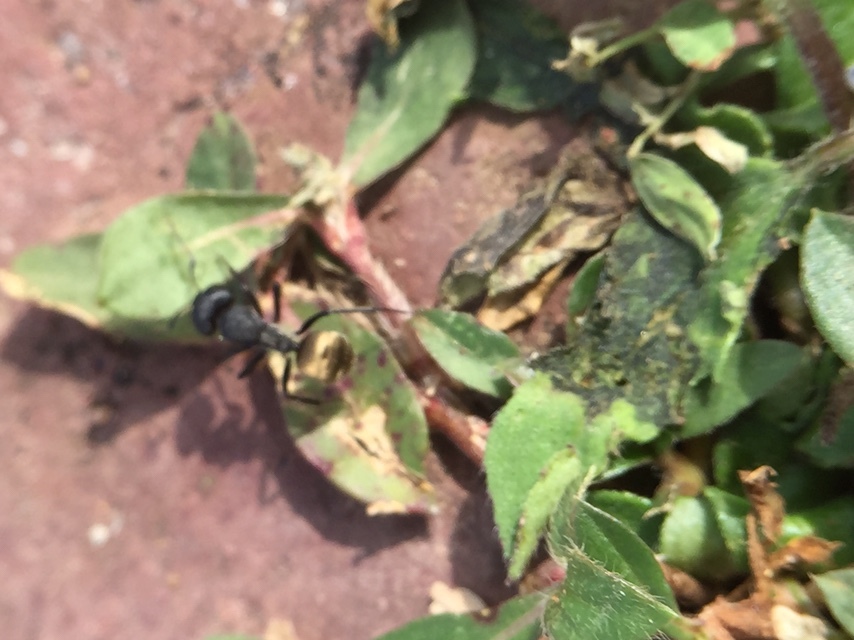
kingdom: Animalia
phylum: Arthropoda
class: Insecta
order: Hymenoptera
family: Formicidae
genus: Camponotus
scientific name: Camponotus sericeus
